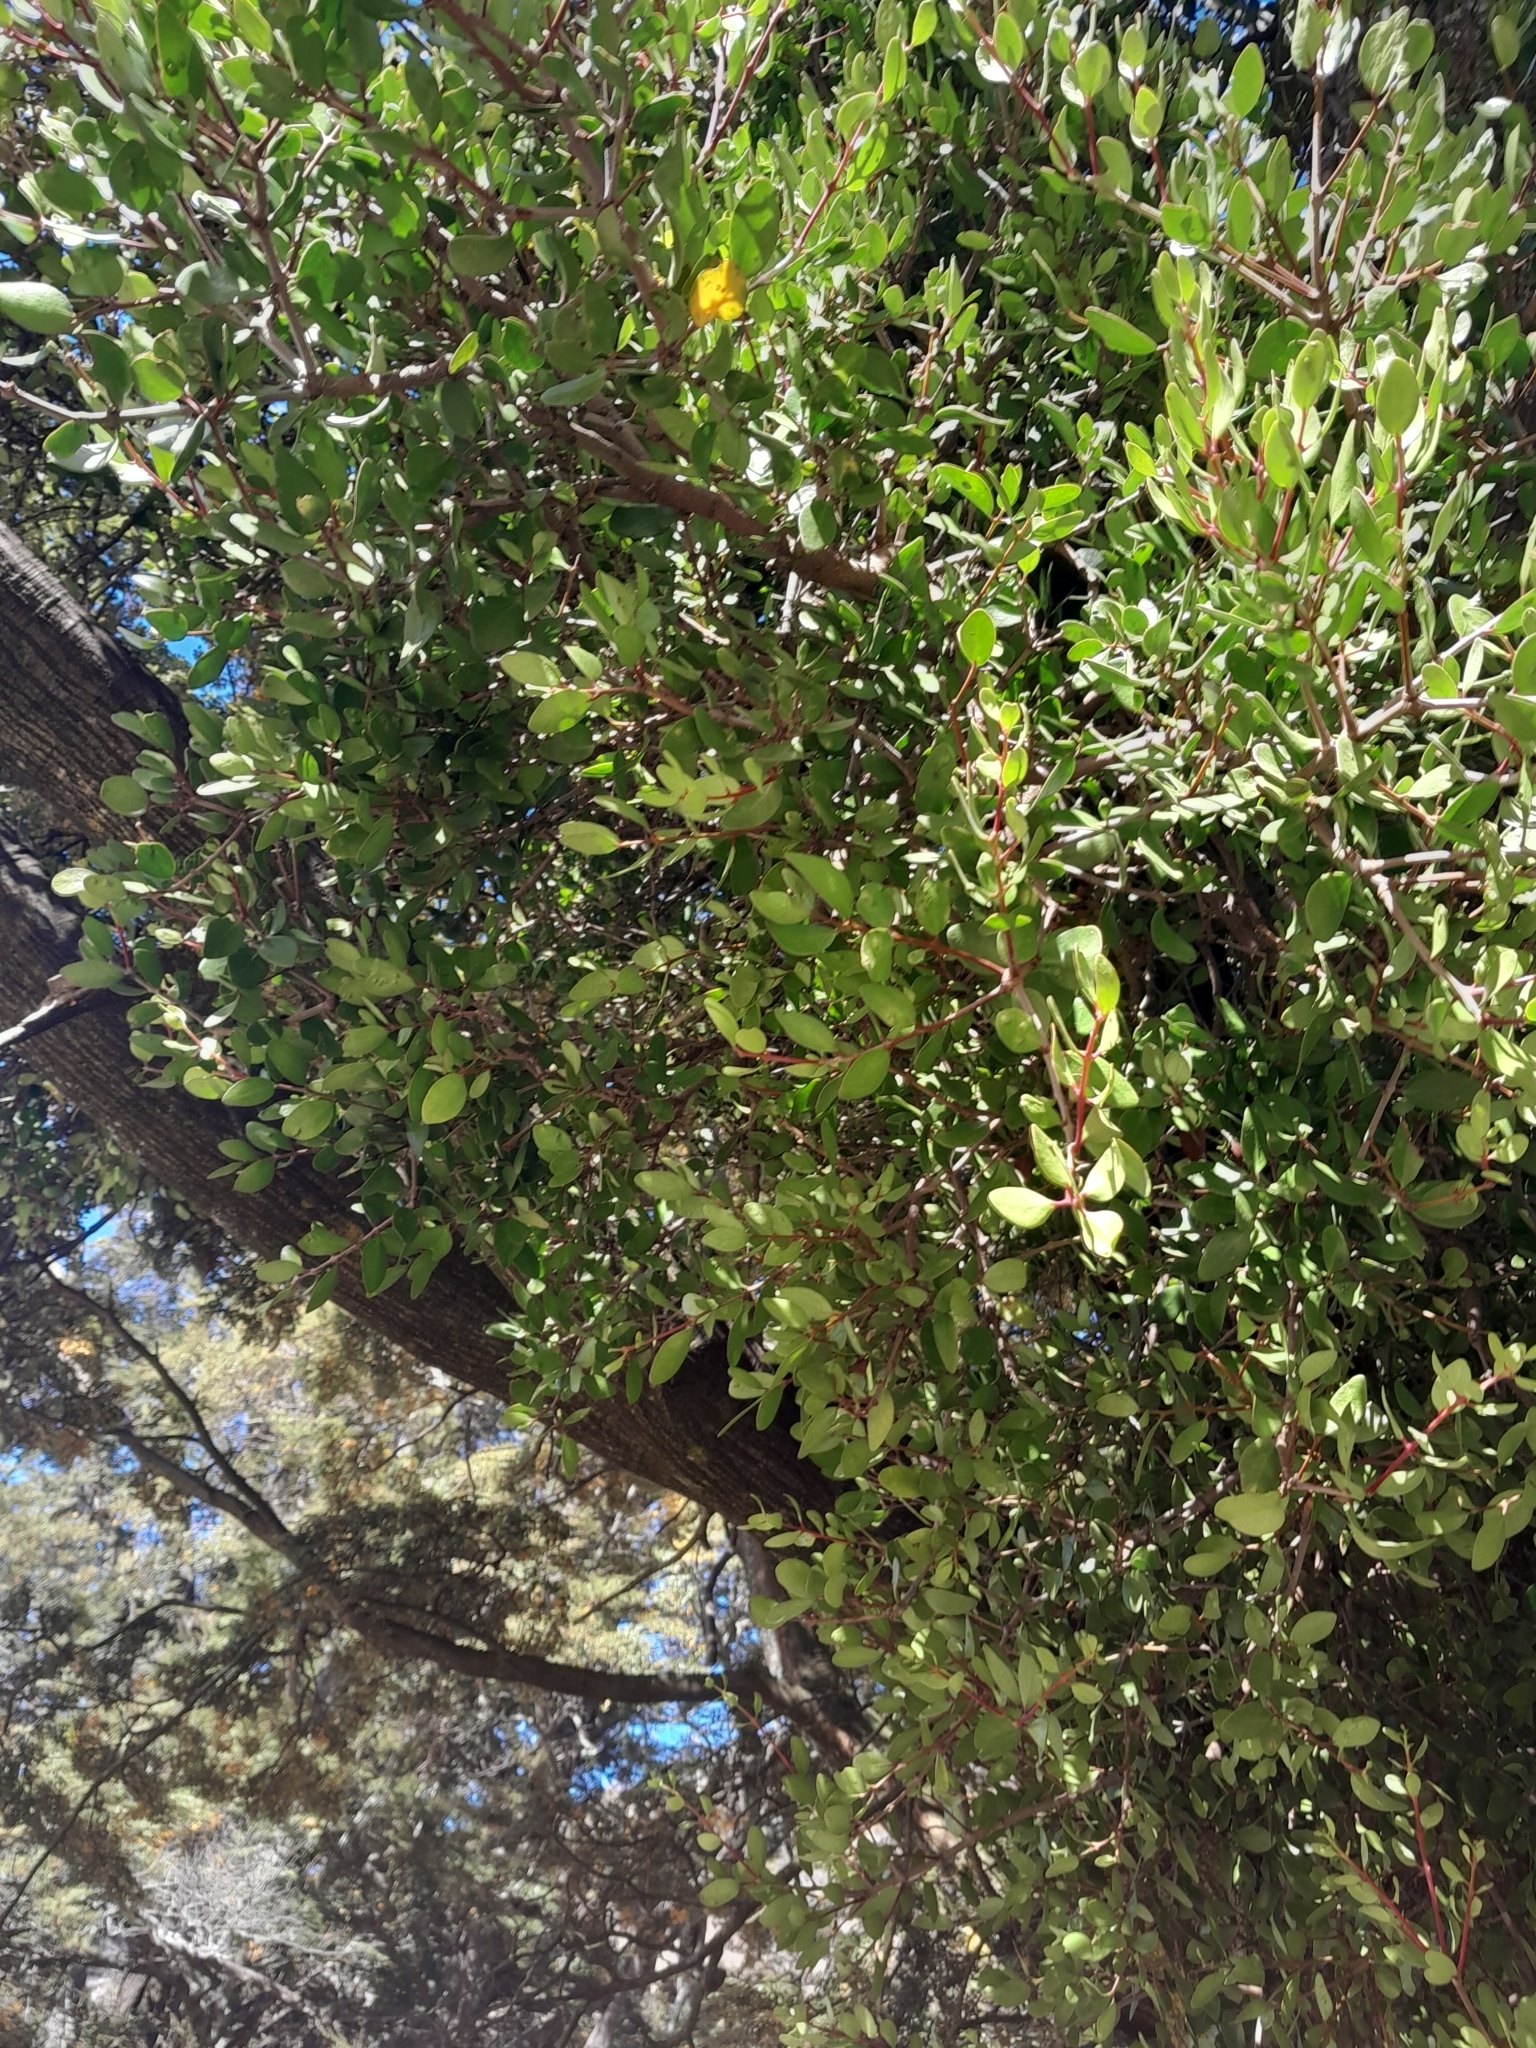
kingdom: Plantae
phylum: Tracheophyta
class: Magnoliopsida
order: Santalales
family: Loranthaceae
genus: Peraxilla
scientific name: Peraxilla tetrapetala
